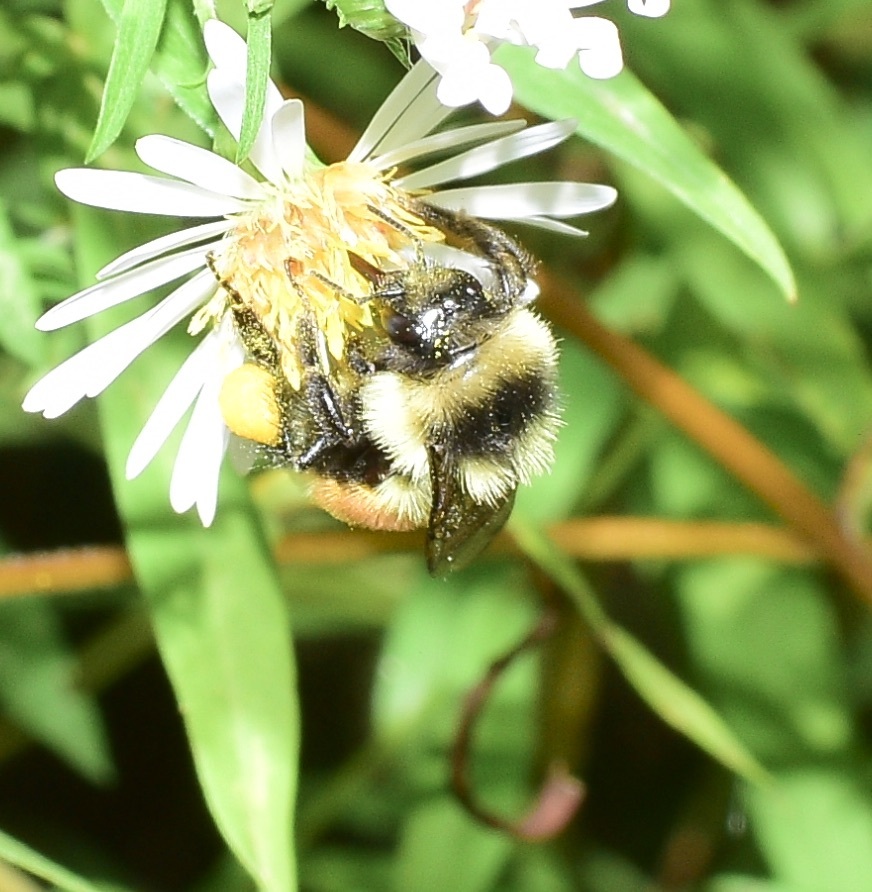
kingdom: Animalia
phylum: Arthropoda
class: Insecta
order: Hymenoptera
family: Apidae
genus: Bombus
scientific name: Bombus ternarius
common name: Tri-colored bumble bee
